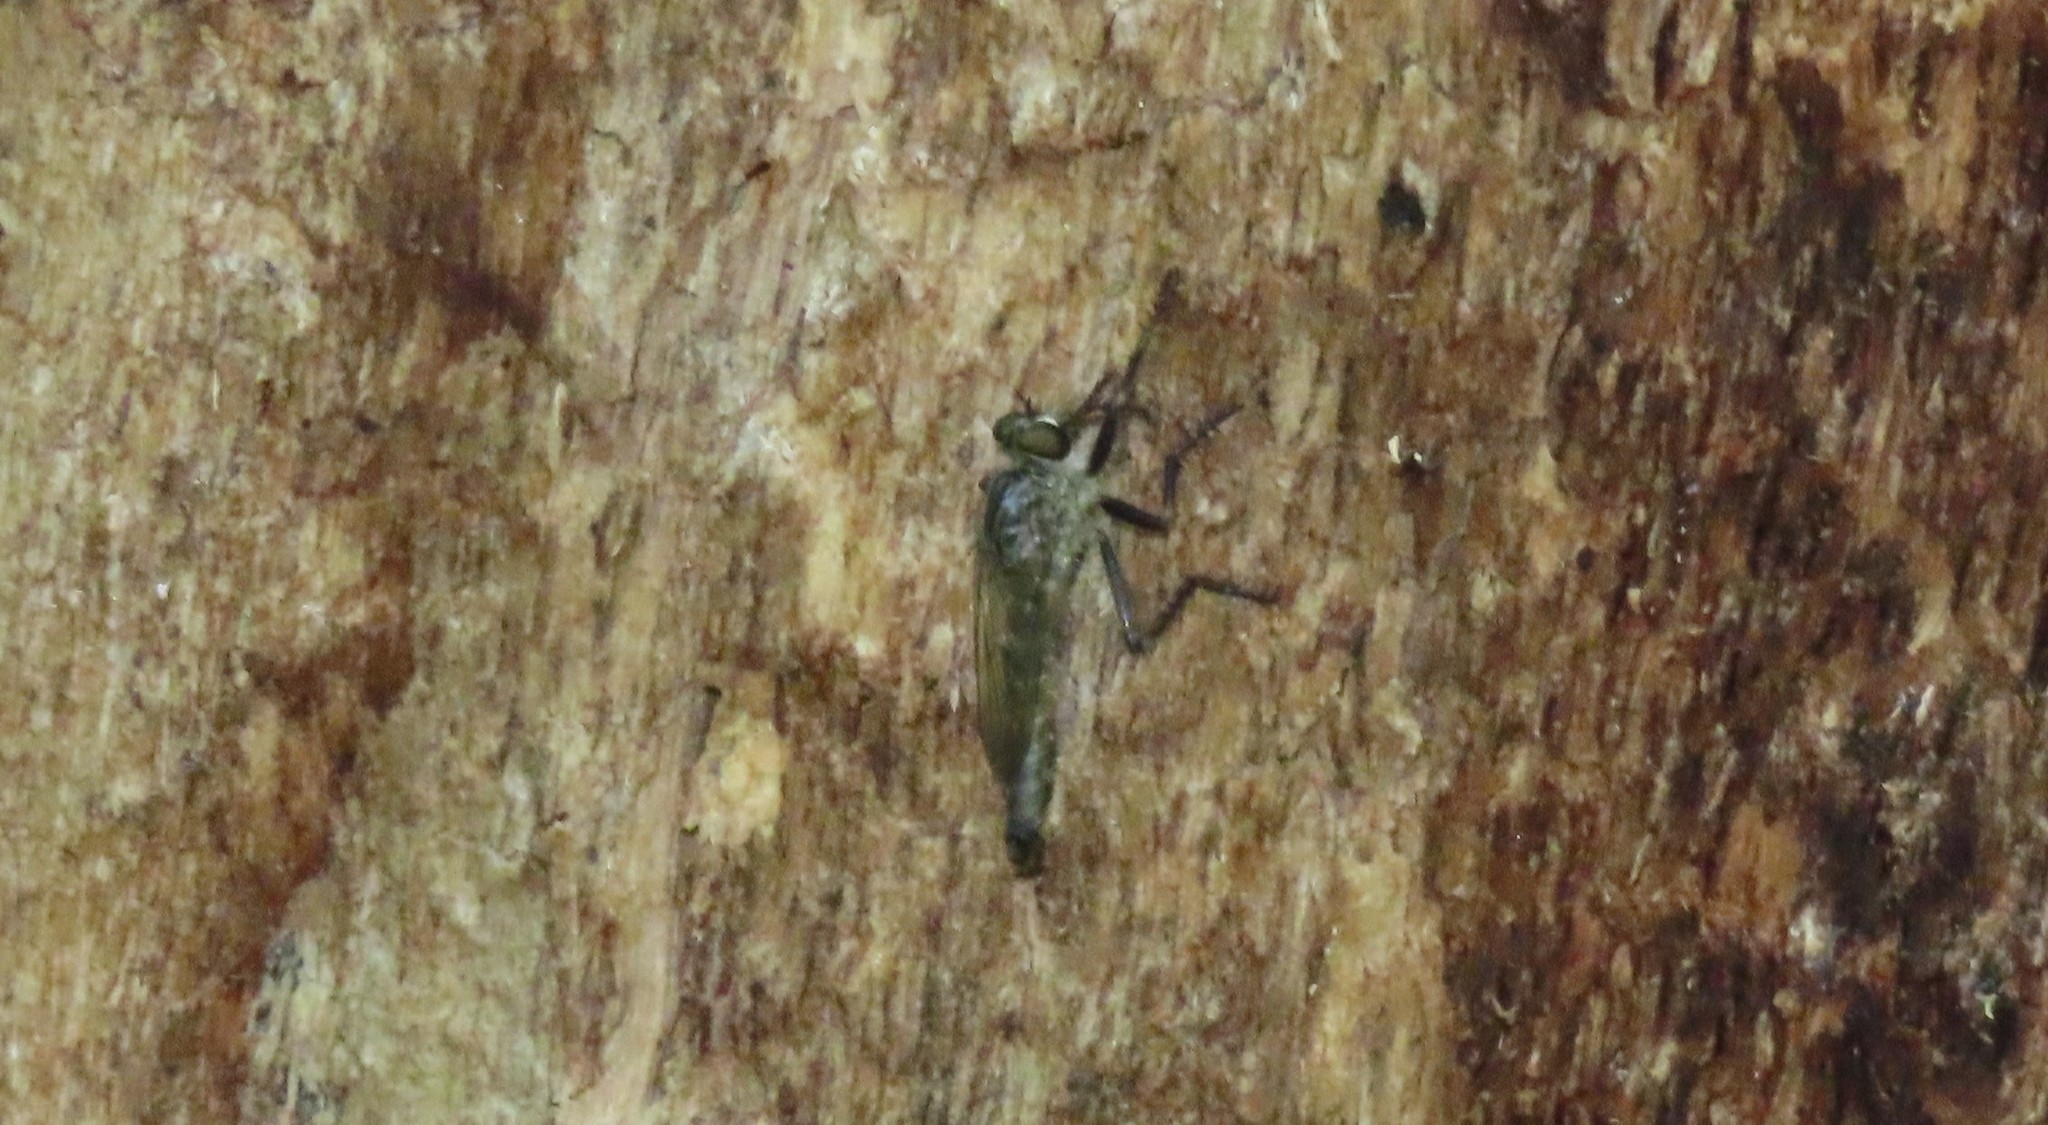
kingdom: Animalia
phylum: Arthropoda
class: Insecta
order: Diptera
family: Asilidae
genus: Machimus
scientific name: Machimus notatus
